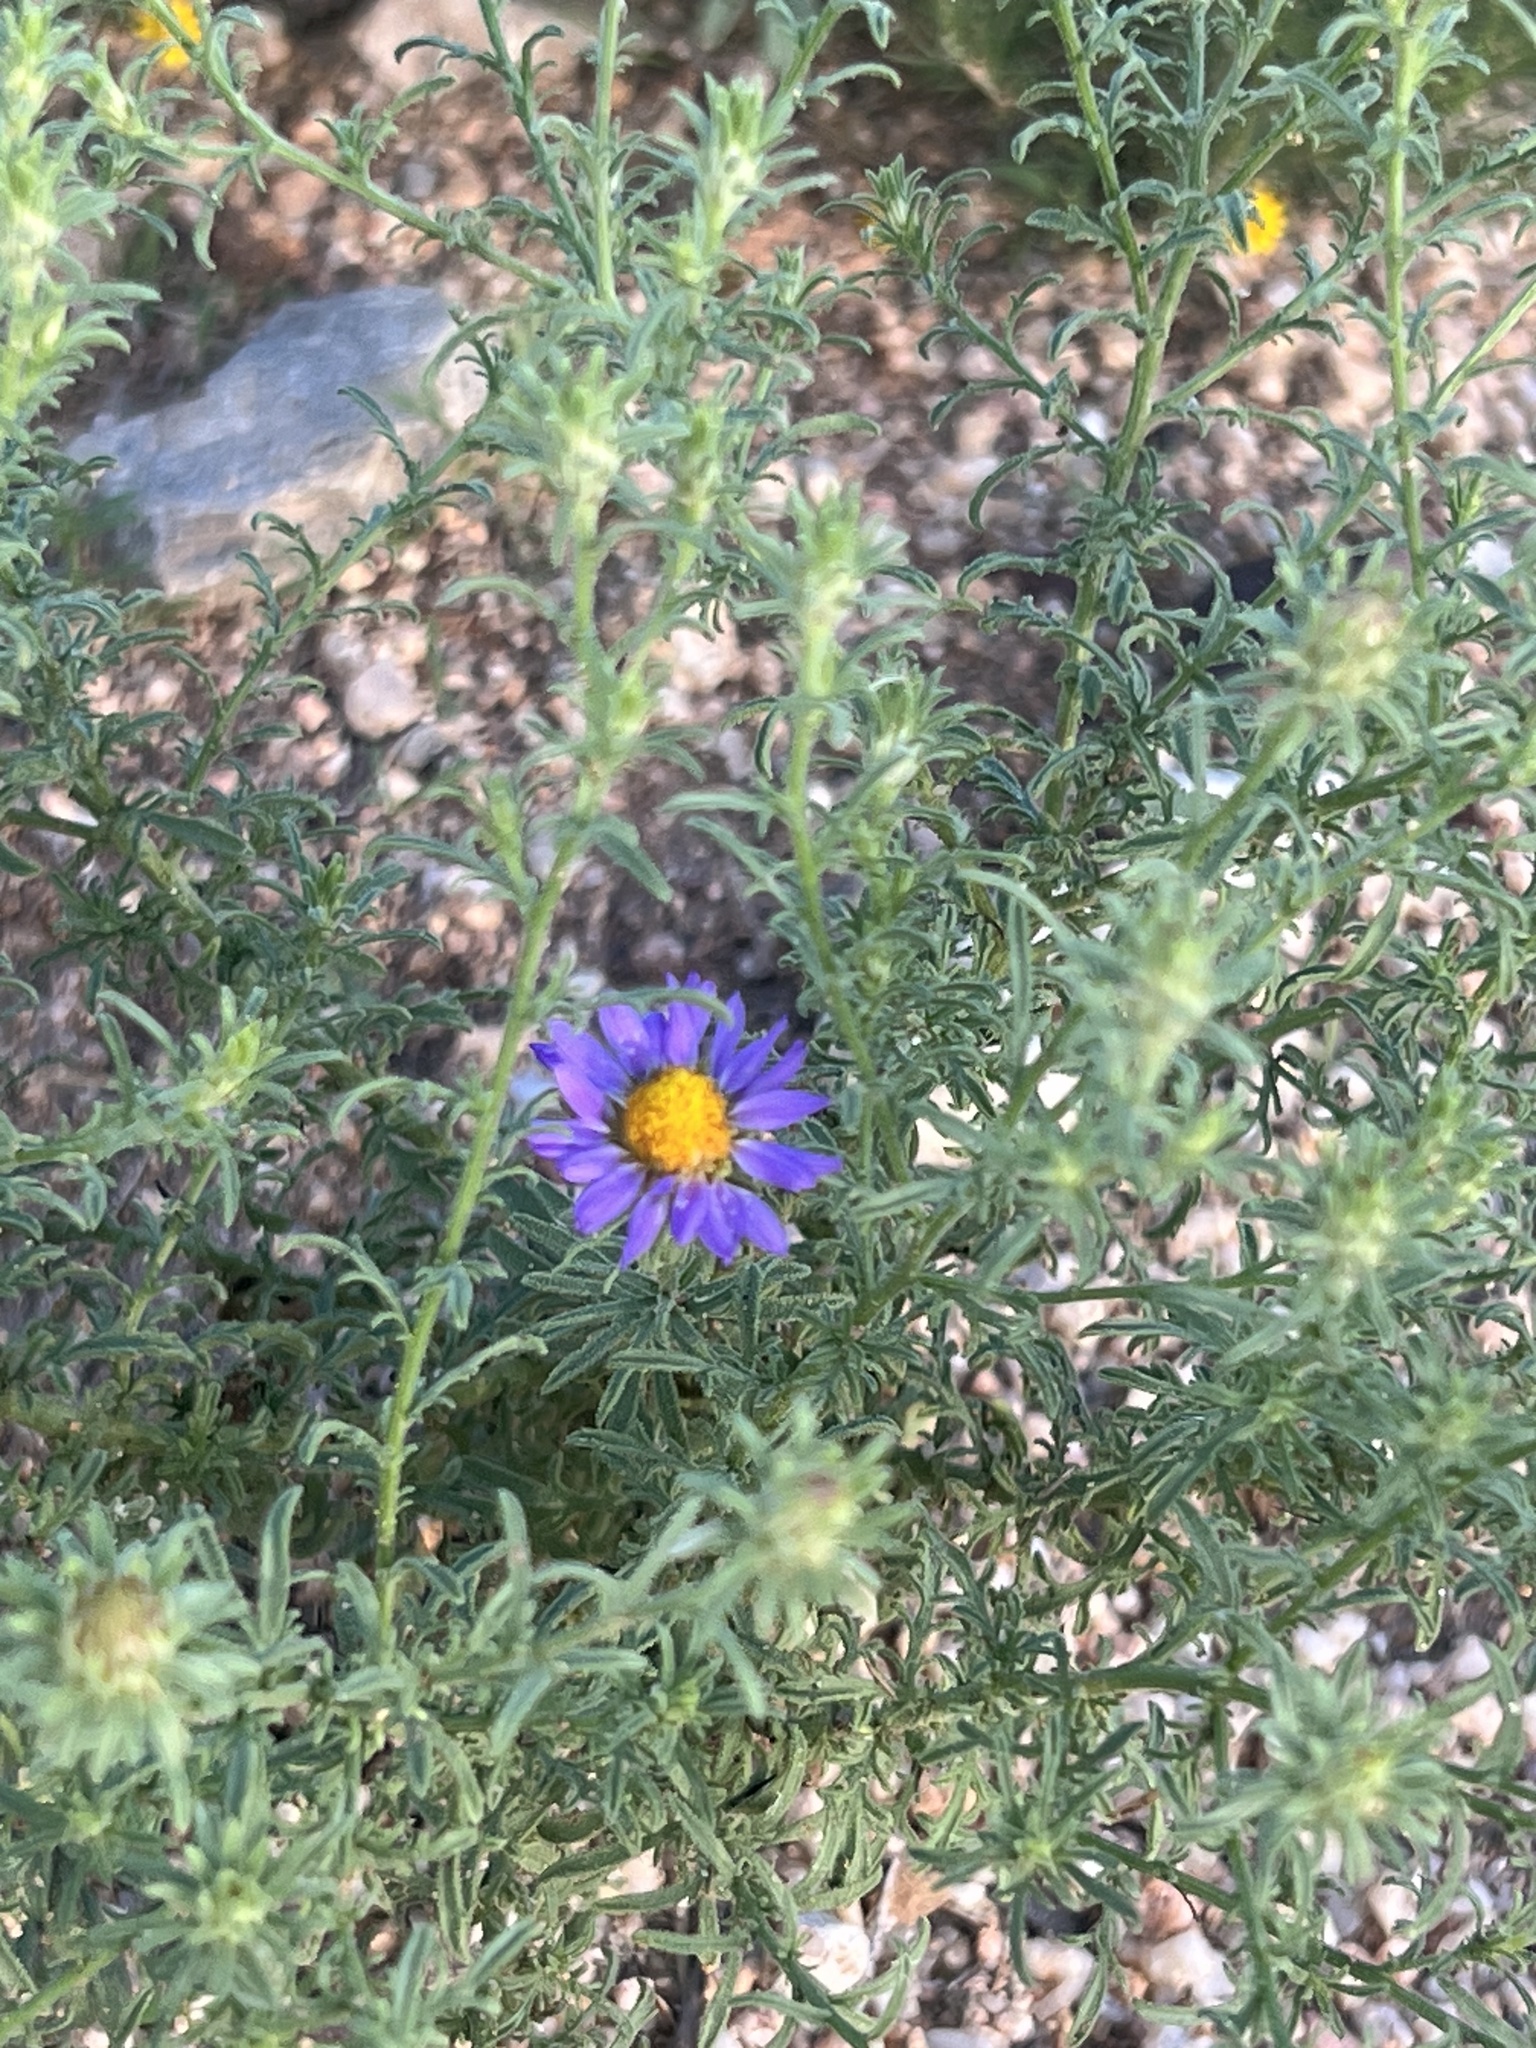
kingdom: Plantae
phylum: Tracheophyta
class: Magnoliopsida
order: Asterales
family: Asteraceae
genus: Machaeranthera
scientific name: Machaeranthera tagetina
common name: Mesa tansy-aster
